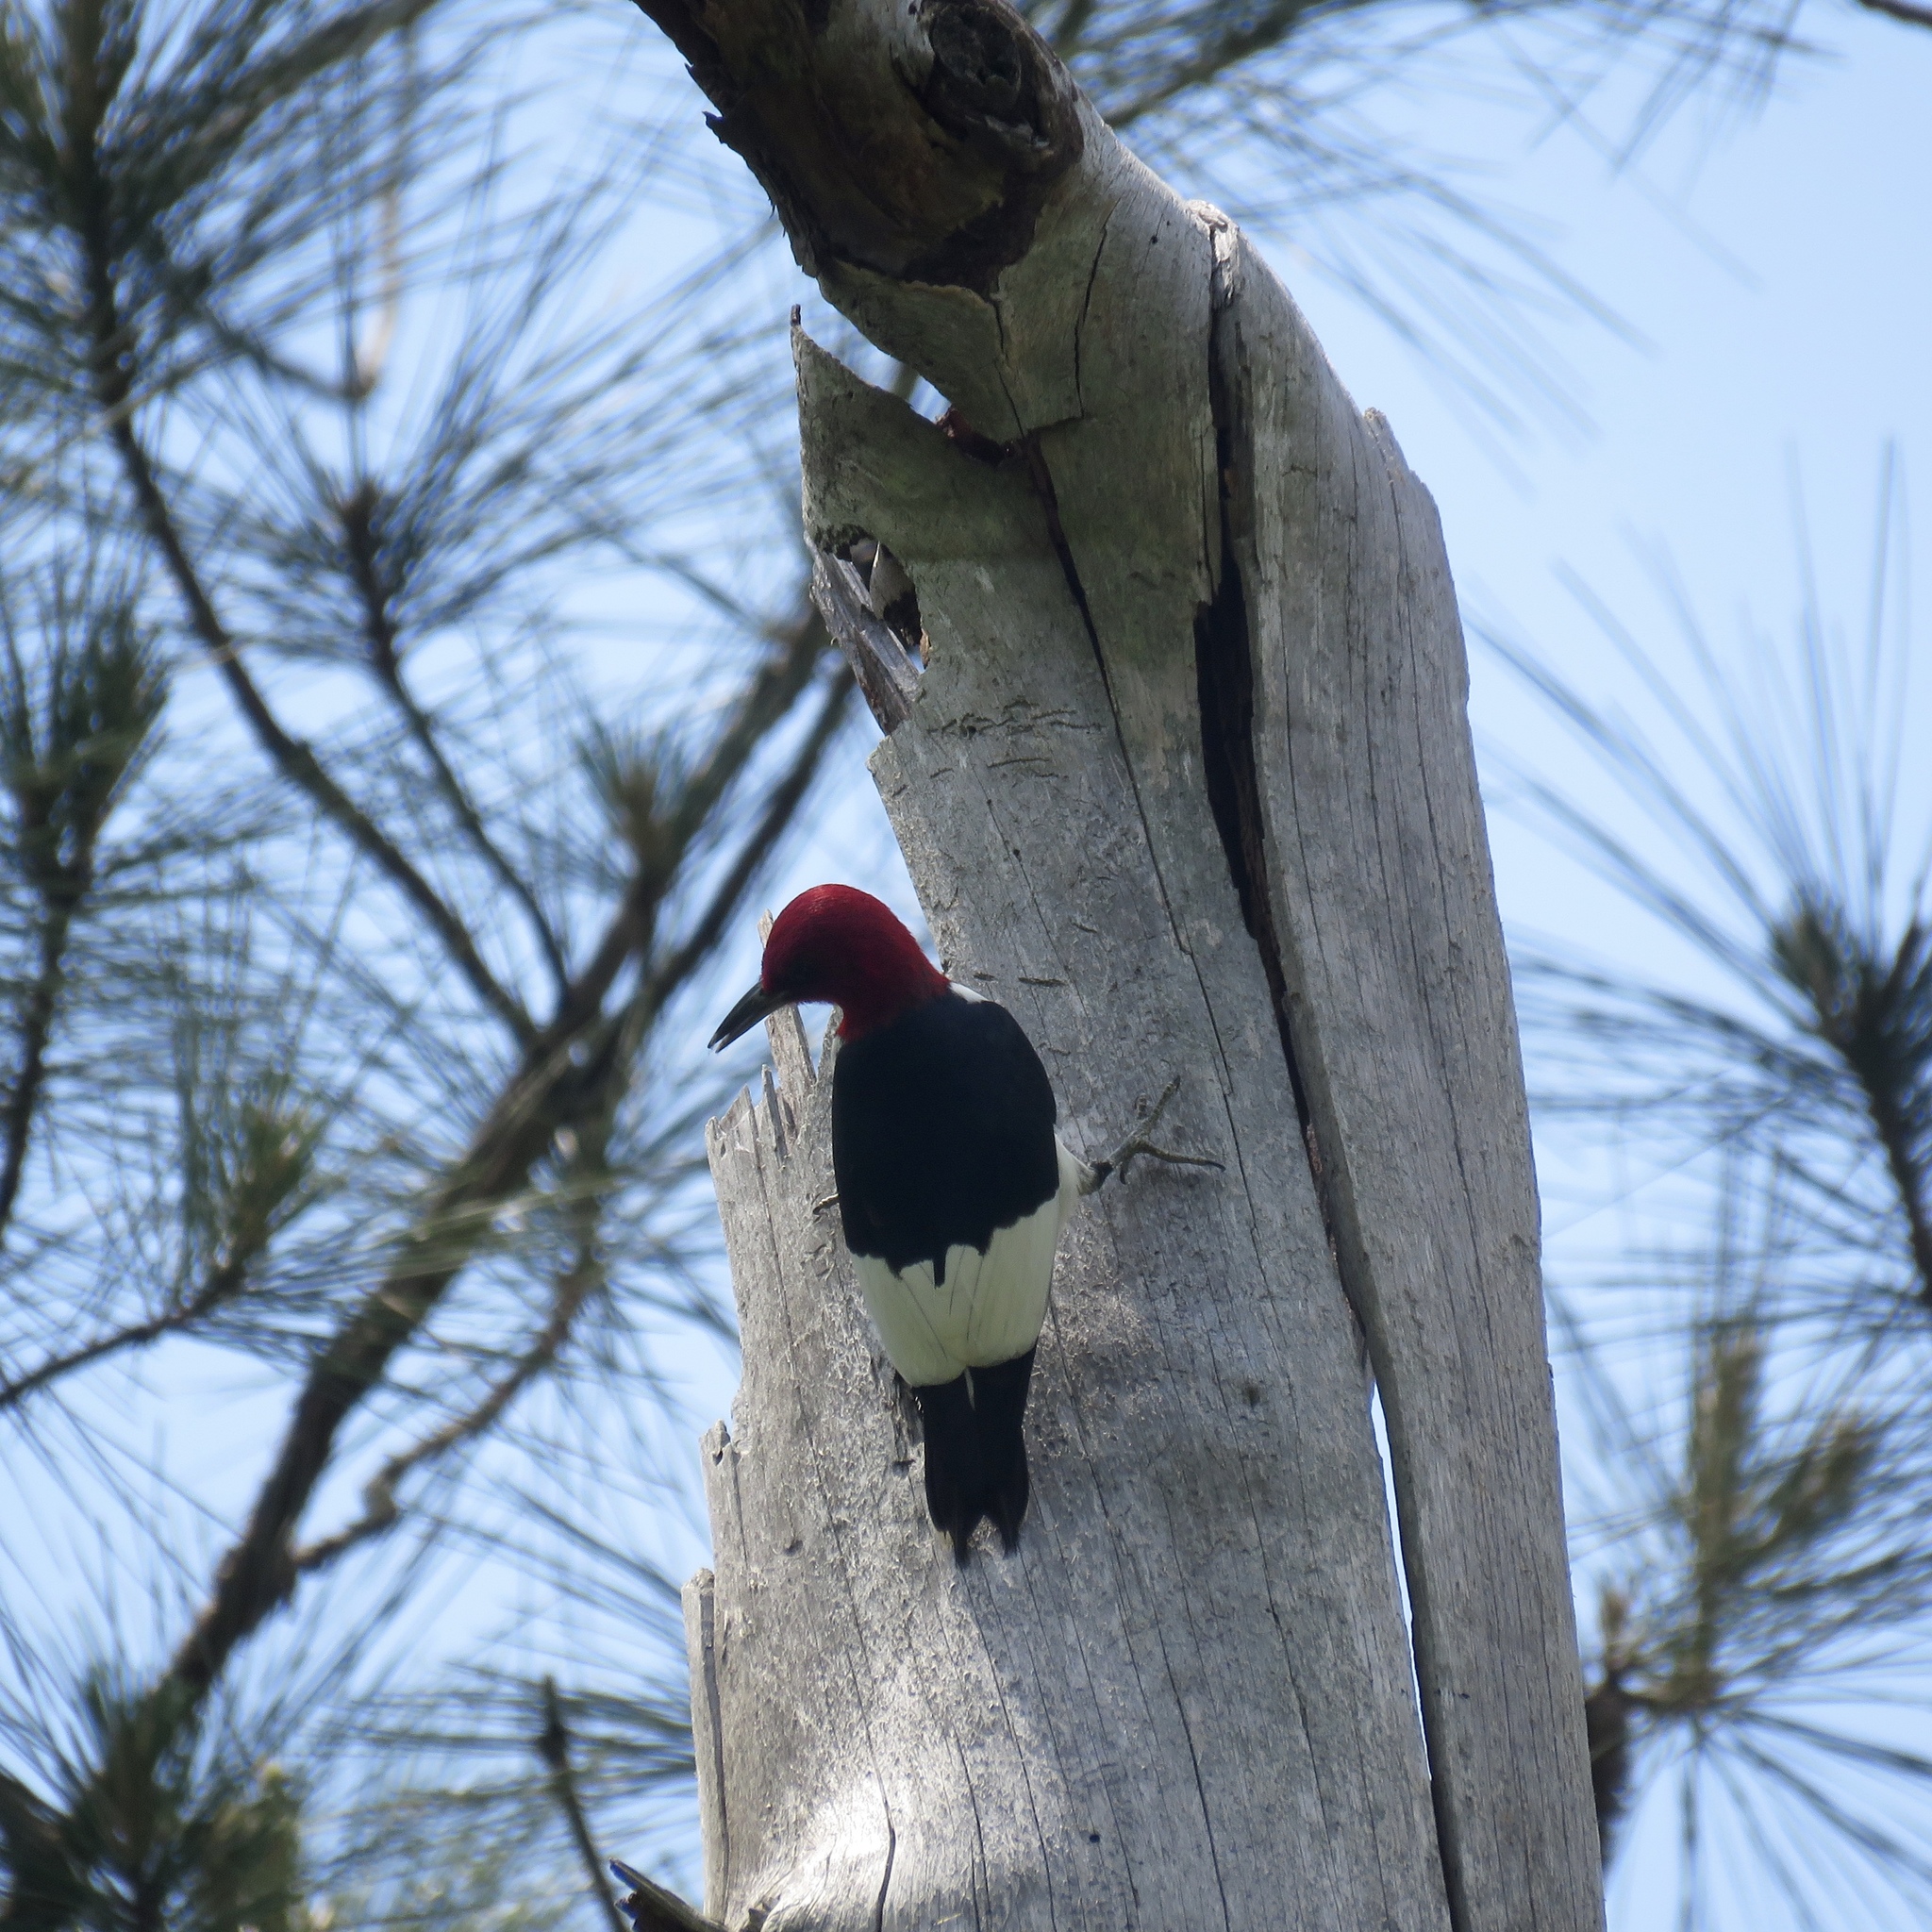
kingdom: Animalia
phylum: Chordata
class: Aves
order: Piciformes
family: Picidae
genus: Melanerpes
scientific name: Melanerpes erythrocephalus
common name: Red-headed woodpecker
